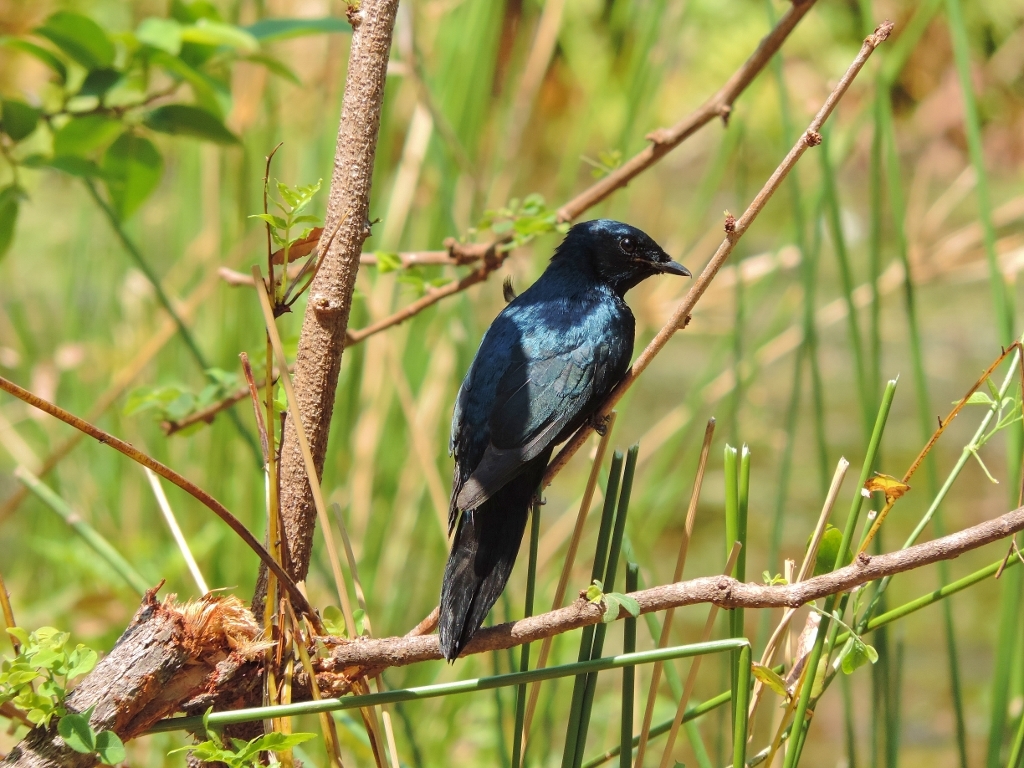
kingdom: Animalia
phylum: Chordata
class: Aves
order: Passeriformes
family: Sturnidae
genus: Lamprotornis
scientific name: Lamprotornis mevesii
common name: Meves's starling
